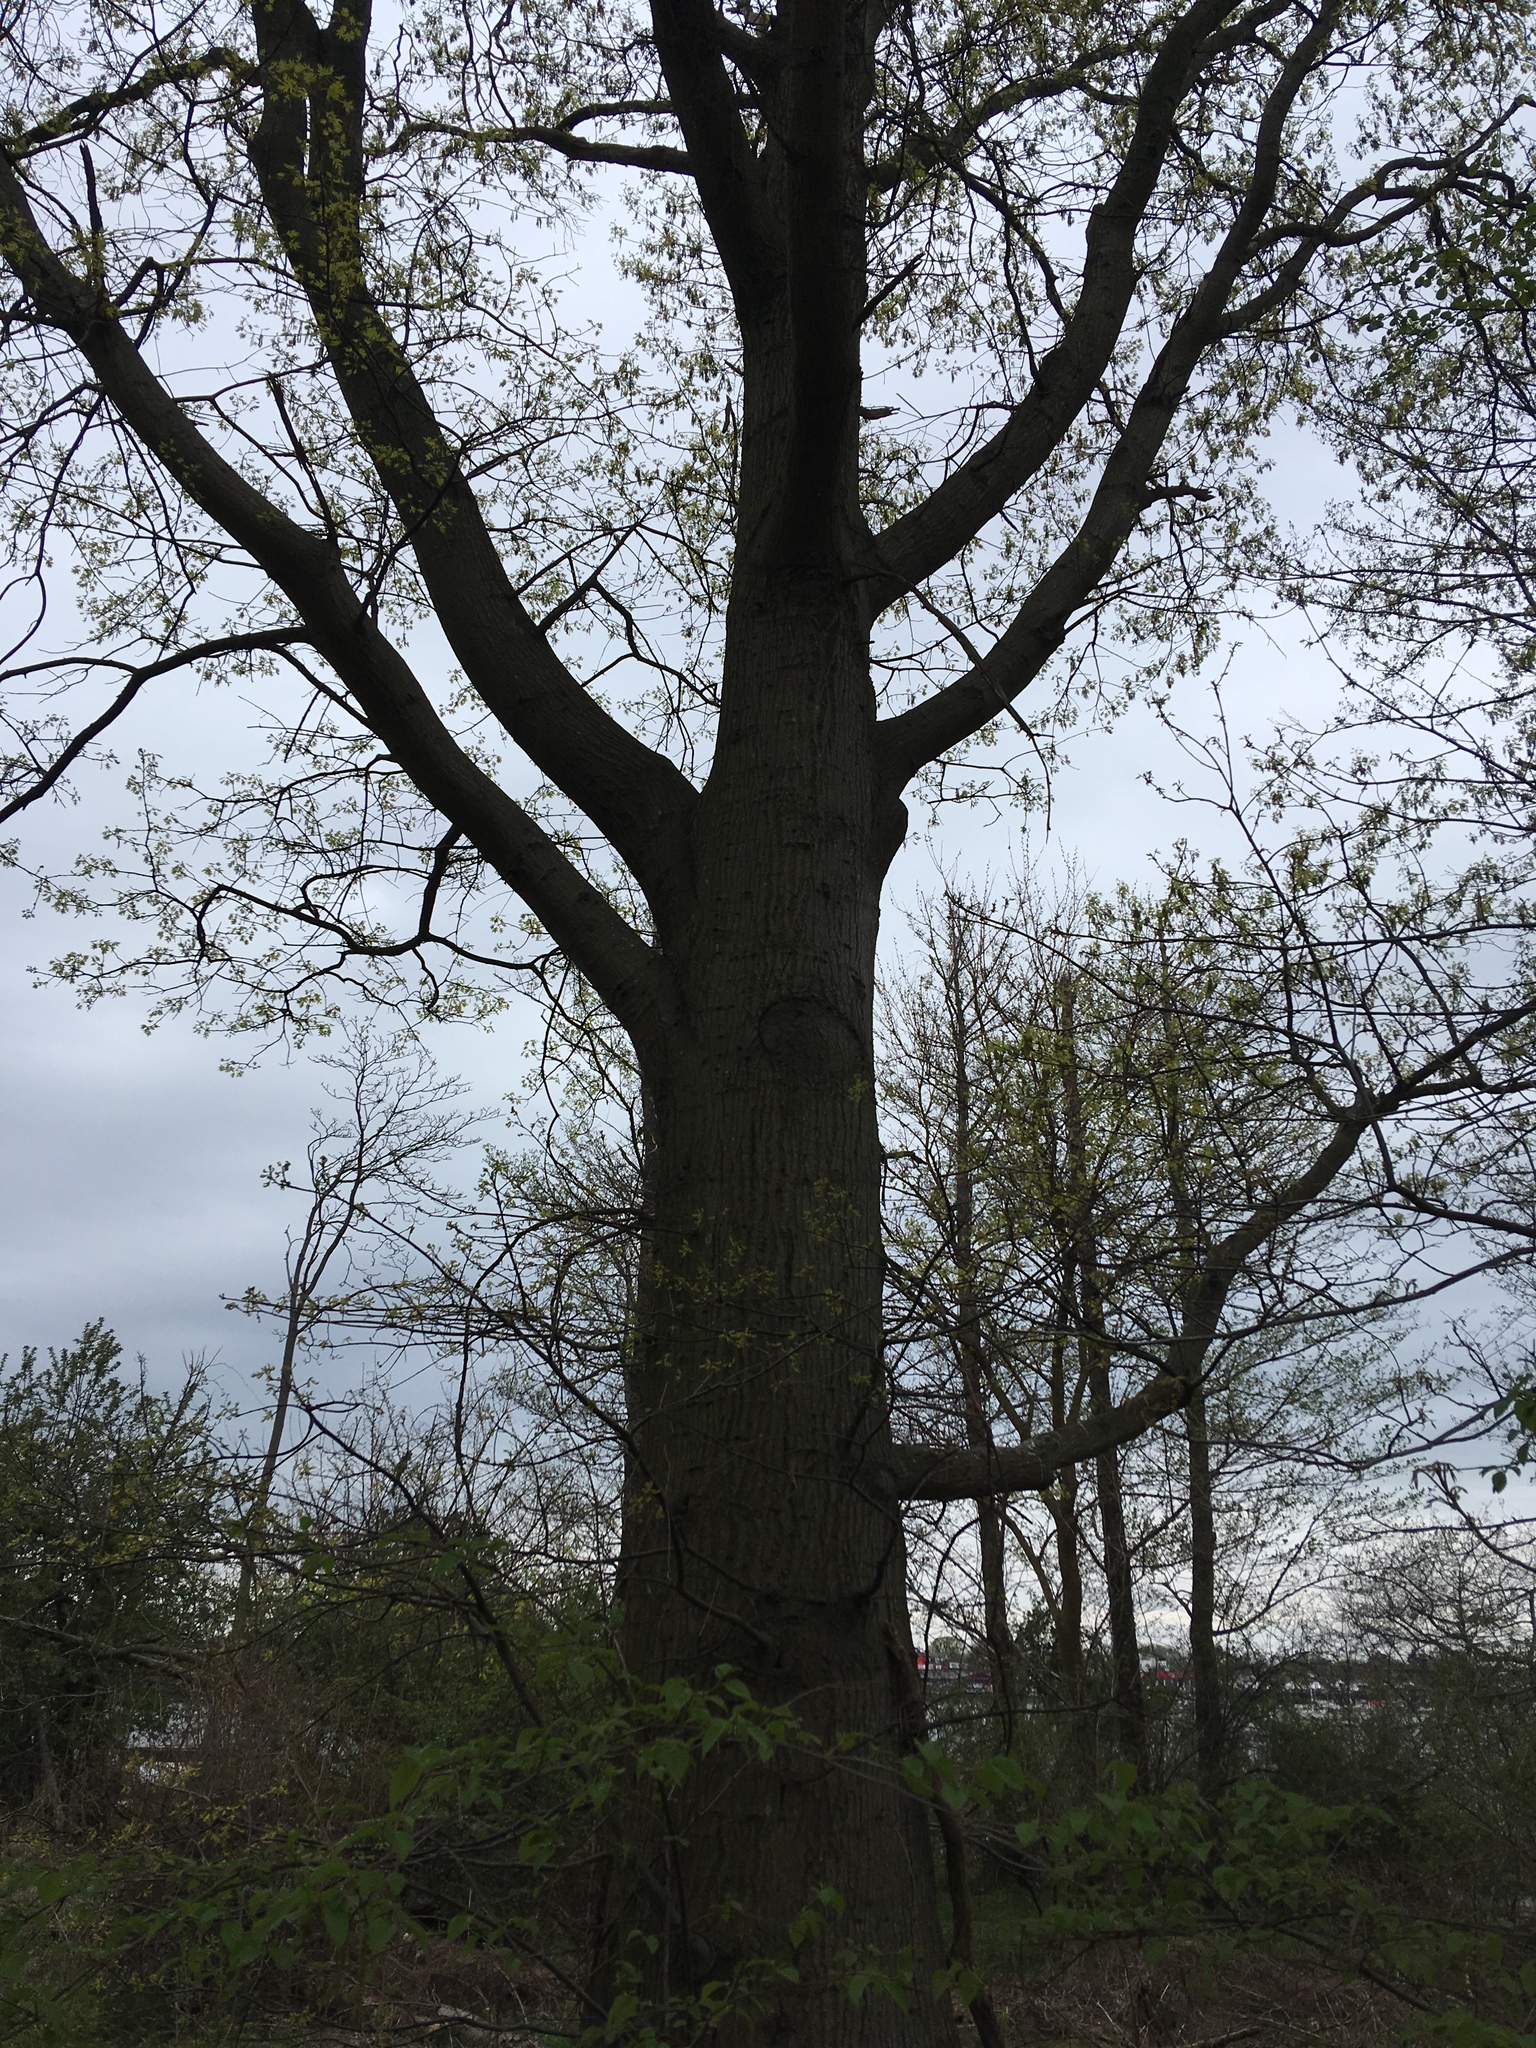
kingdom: Plantae
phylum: Tracheophyta
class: Magnoliopsida
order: Fagales
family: Fagaceae
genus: Quercus
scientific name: Quercus palustris
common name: Pin oak
